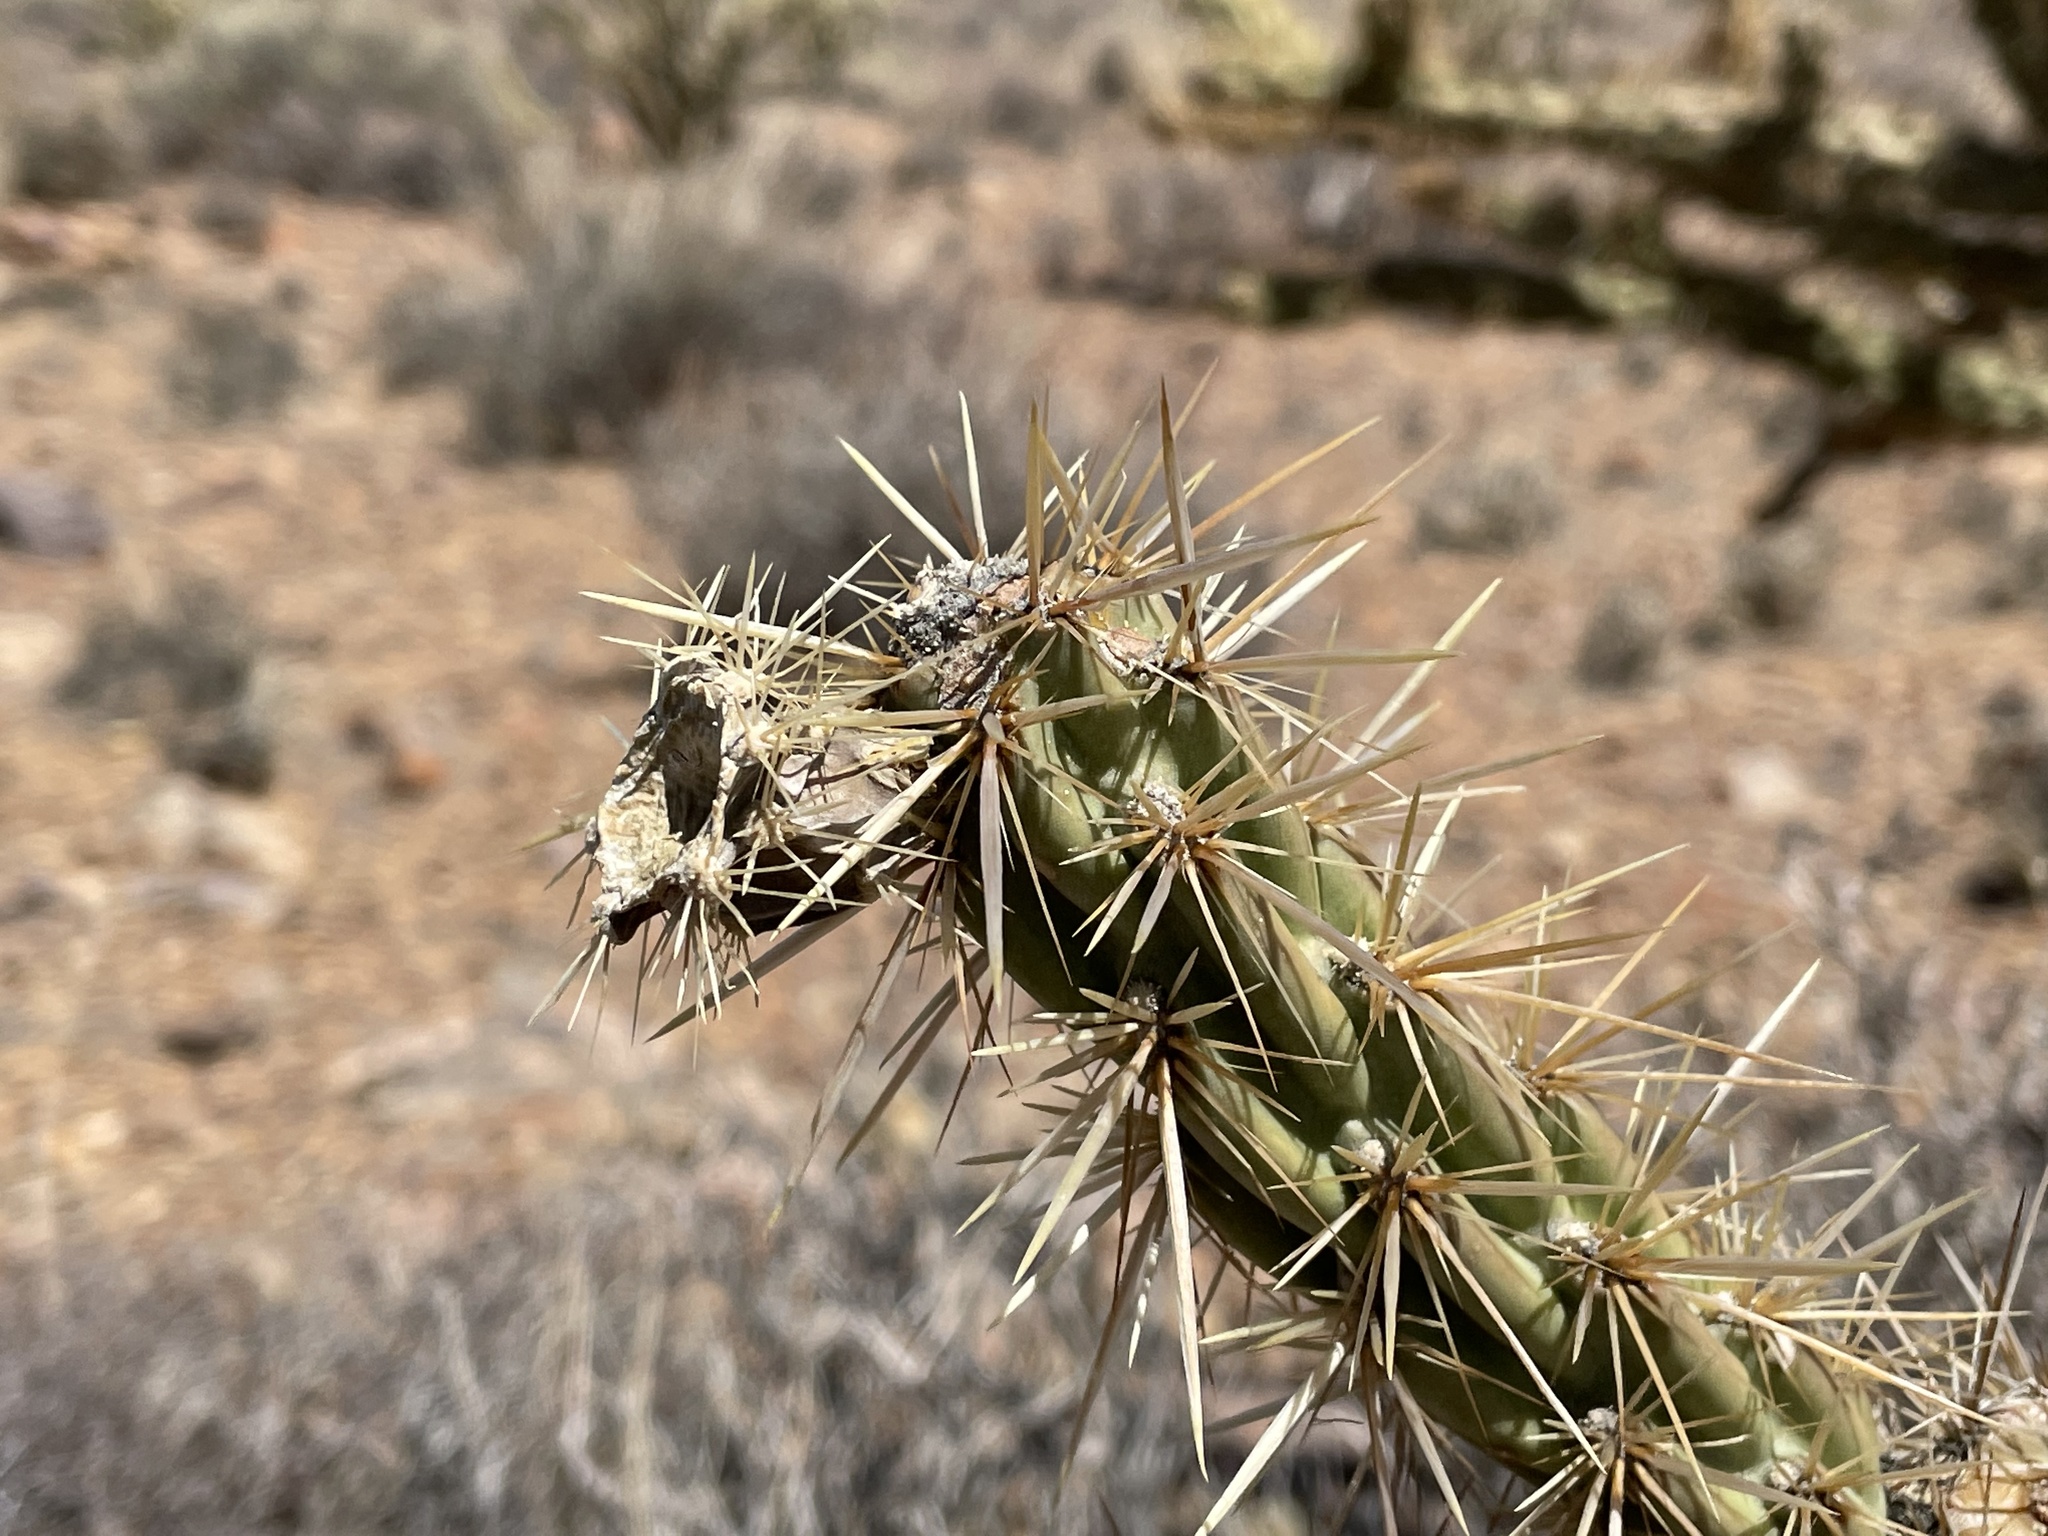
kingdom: Plantae
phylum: Tracheophyta
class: Magnoliopsida
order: Caryophyllales
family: Cactaceae
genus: Cylindropuntia
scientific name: Cylindropuntia acanthocarpa
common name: Buckhorn cholla
